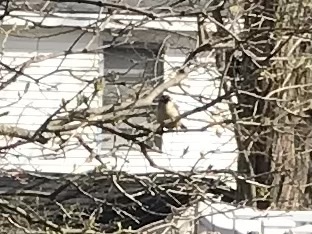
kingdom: Animalia
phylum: Chordata
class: Aves
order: Passeriformes
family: Troglodytidae
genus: Thryothorus
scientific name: Thryothorus ludovicianus
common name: Carolina wren
